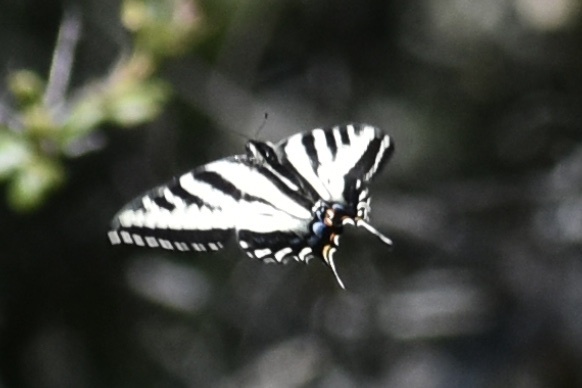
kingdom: Animalia
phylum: Arthropoda
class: Insecta
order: Lepidoptera
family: Papilionidae
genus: Papilio
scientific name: Papilio eurymedon
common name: Pale tiger swallowtail
